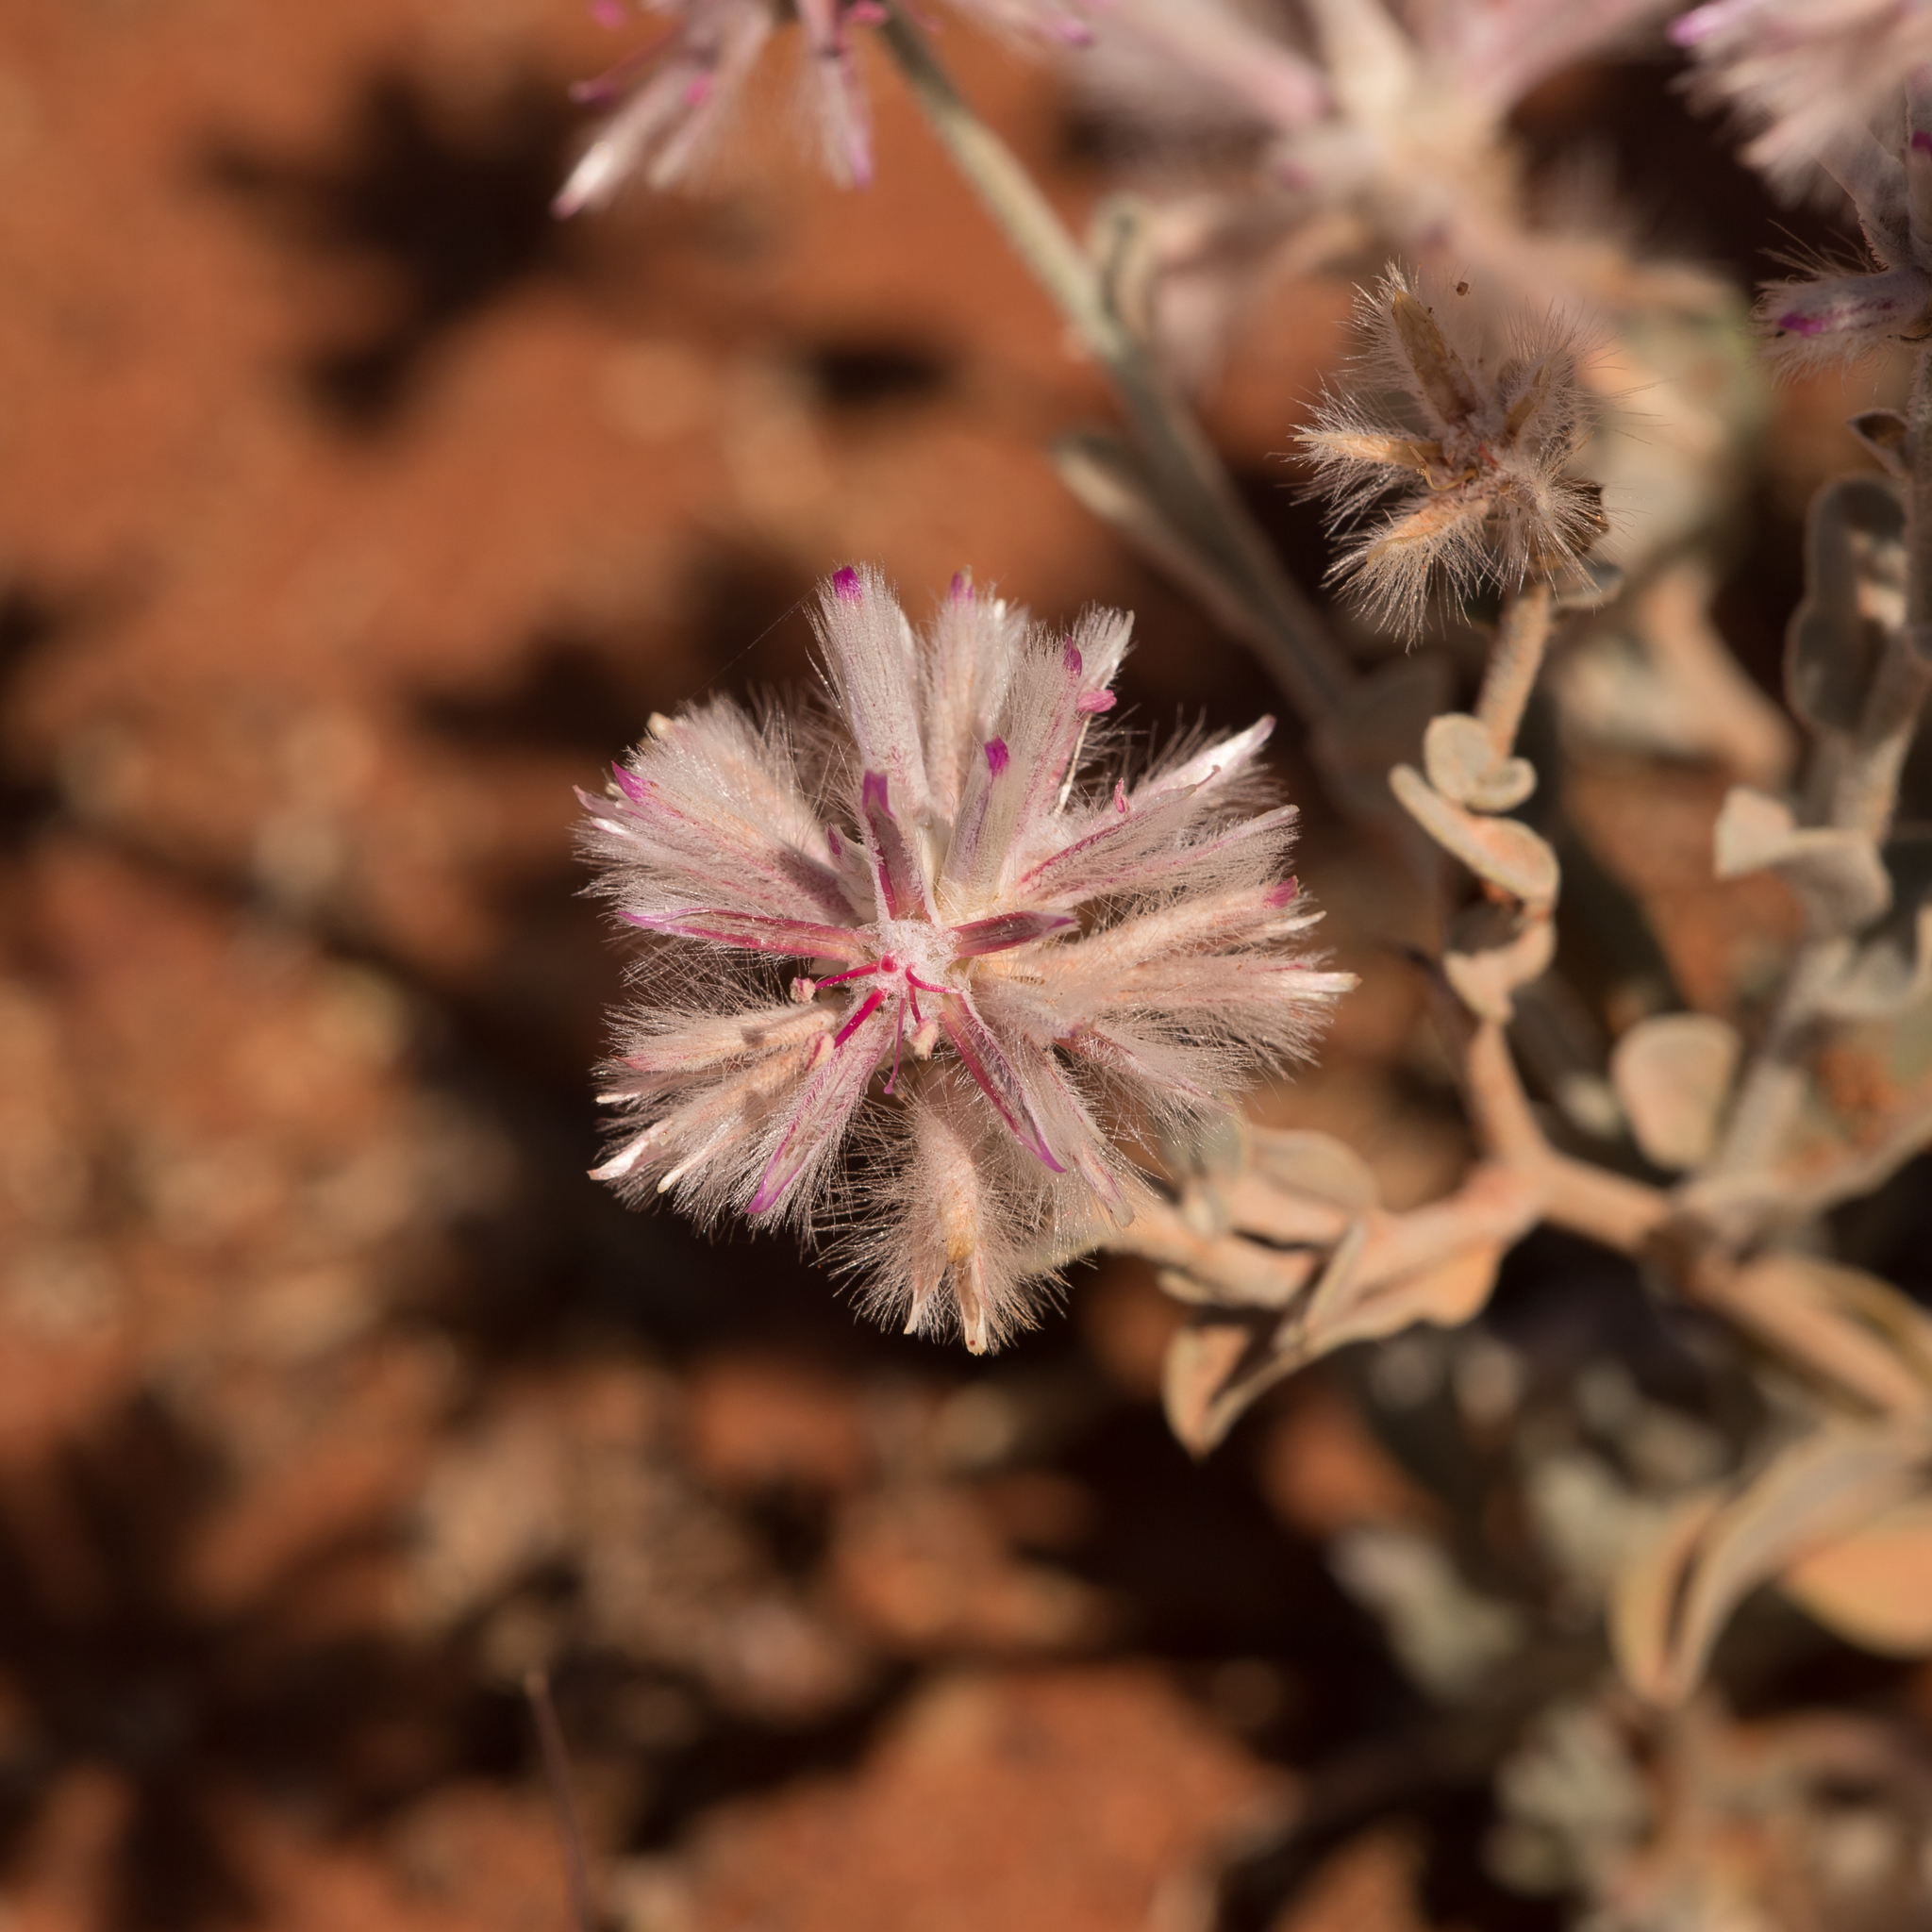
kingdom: Plantae
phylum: Tracheophyta
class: Magnoliopsida
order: Caryophyllales
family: Amaranthaceae
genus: Ptilotus
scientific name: Ptilotus sessilifolius
